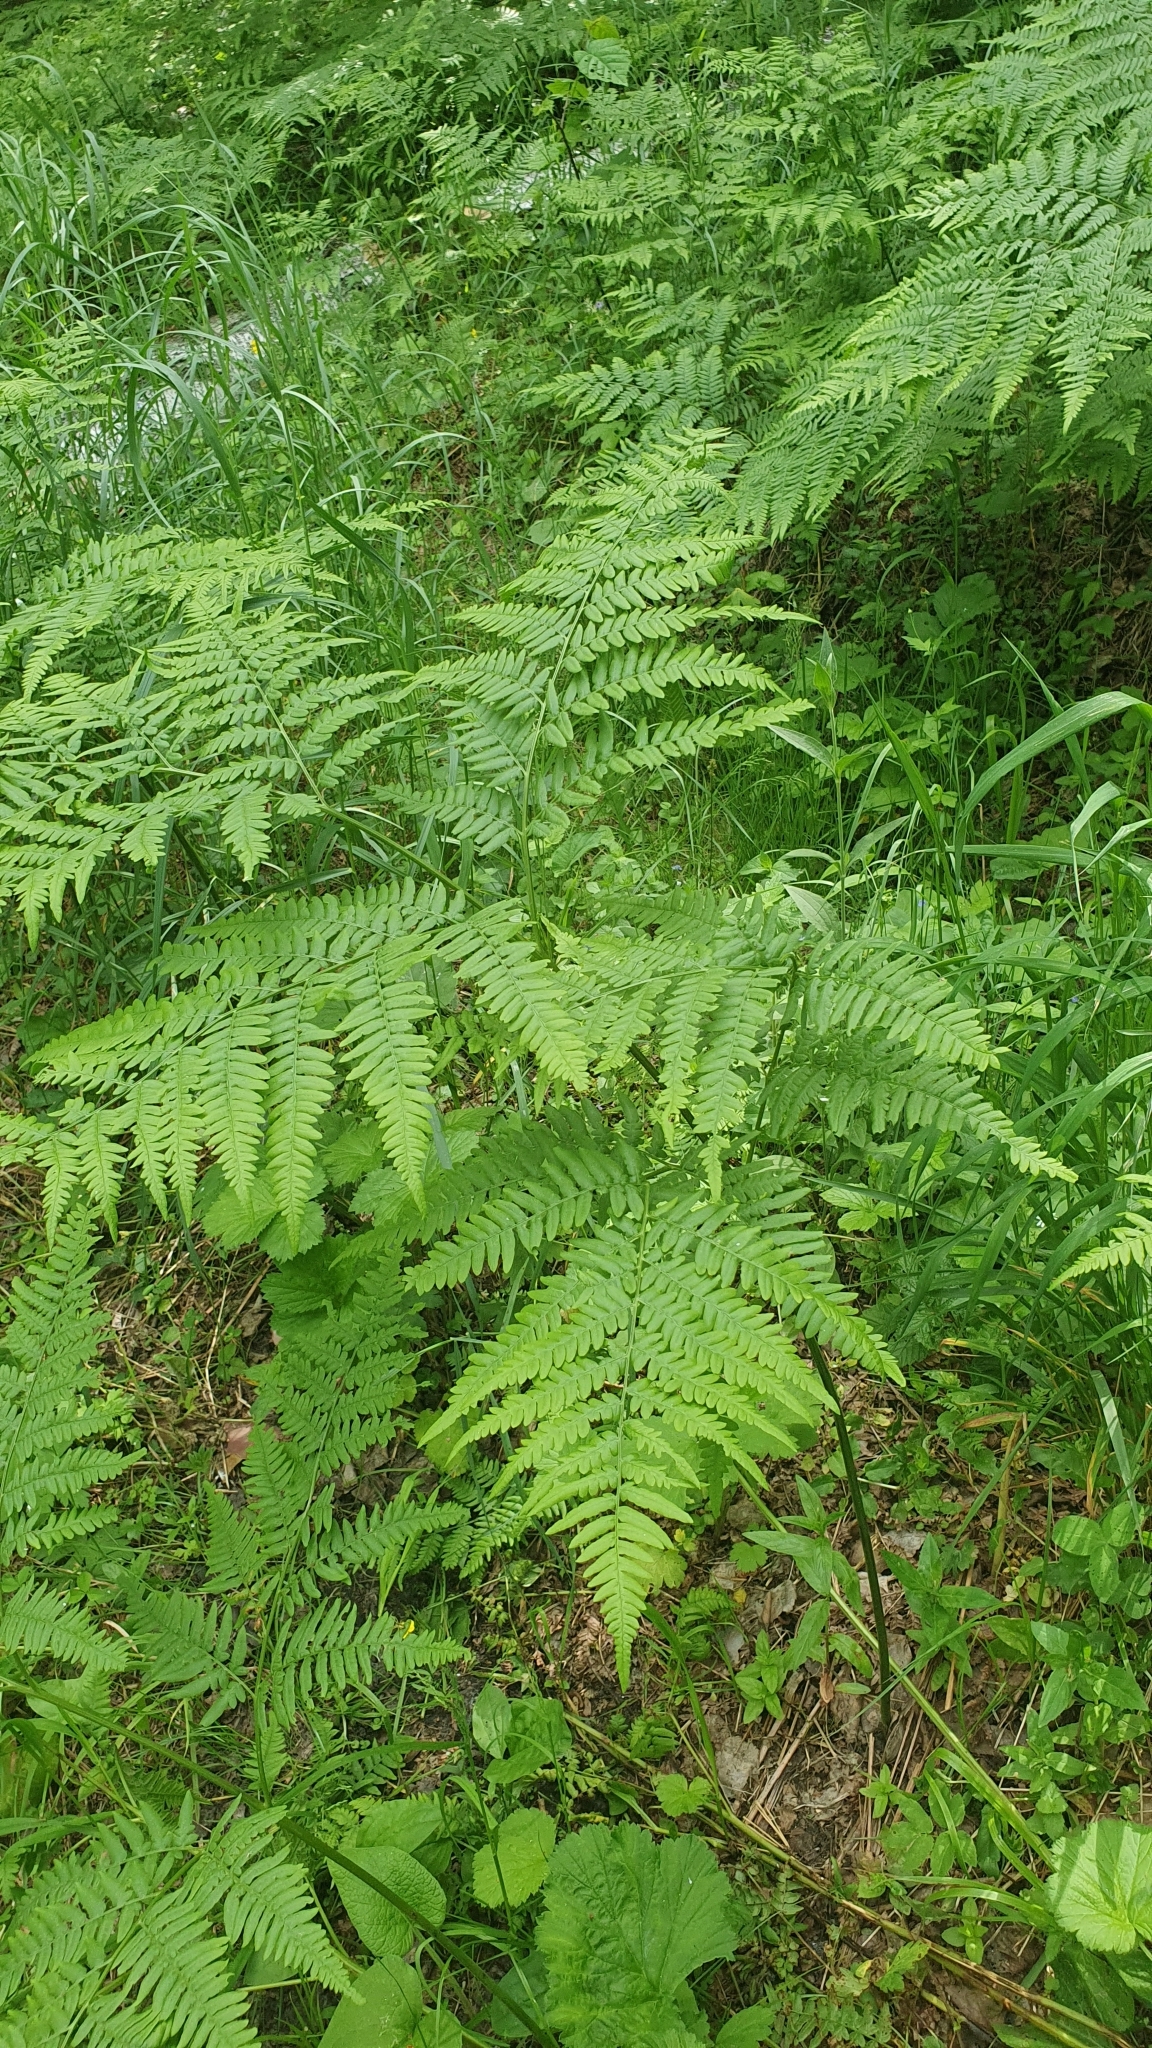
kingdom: Plantae
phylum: Tracheophyta
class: Polypodiopsida
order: Polypodiales
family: Dennstaedtiaceae
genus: Pteridium
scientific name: Pteridium aquilinum
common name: Bracken
